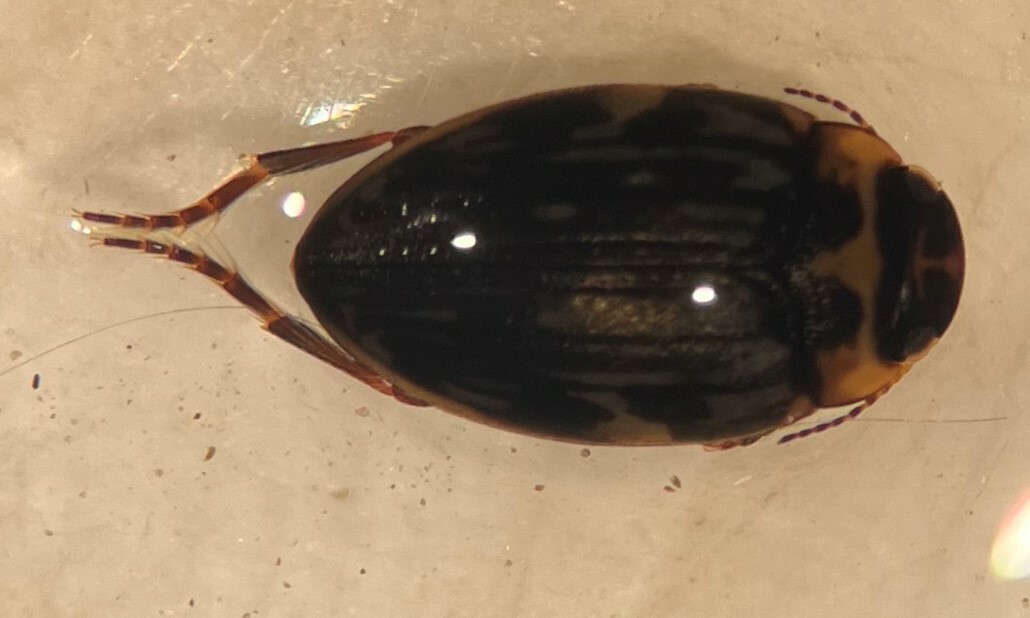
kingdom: Animalia
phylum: Arthropoda
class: Insecta
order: Coleoptera
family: Dytiscidae
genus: Nectoboreus
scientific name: Nectoboreus aequinoctialis
